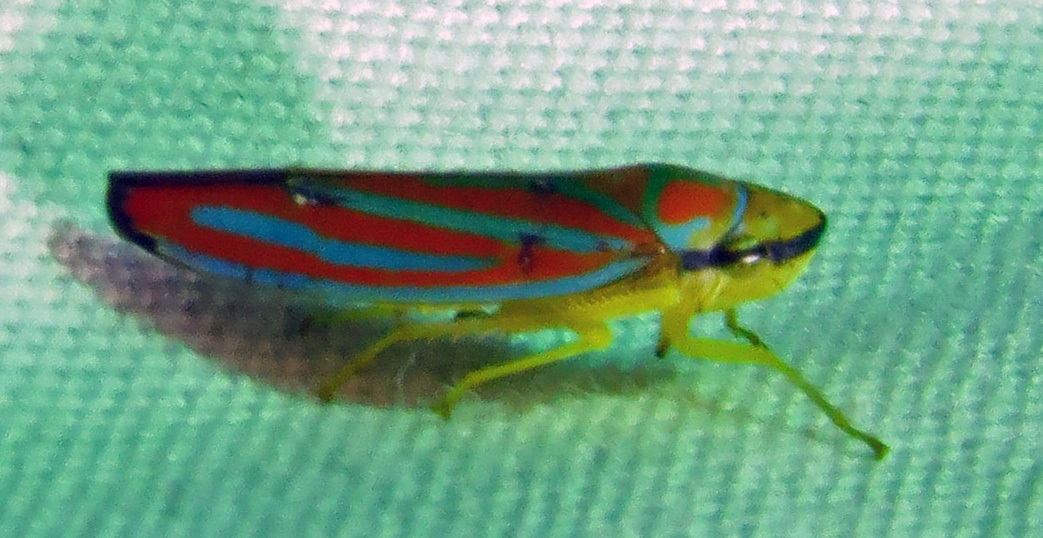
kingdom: Animalia
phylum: Arthropoda
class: Insecta
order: Hemiptera
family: Cicadellidae
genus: Graphocephala
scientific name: Graphocephala
